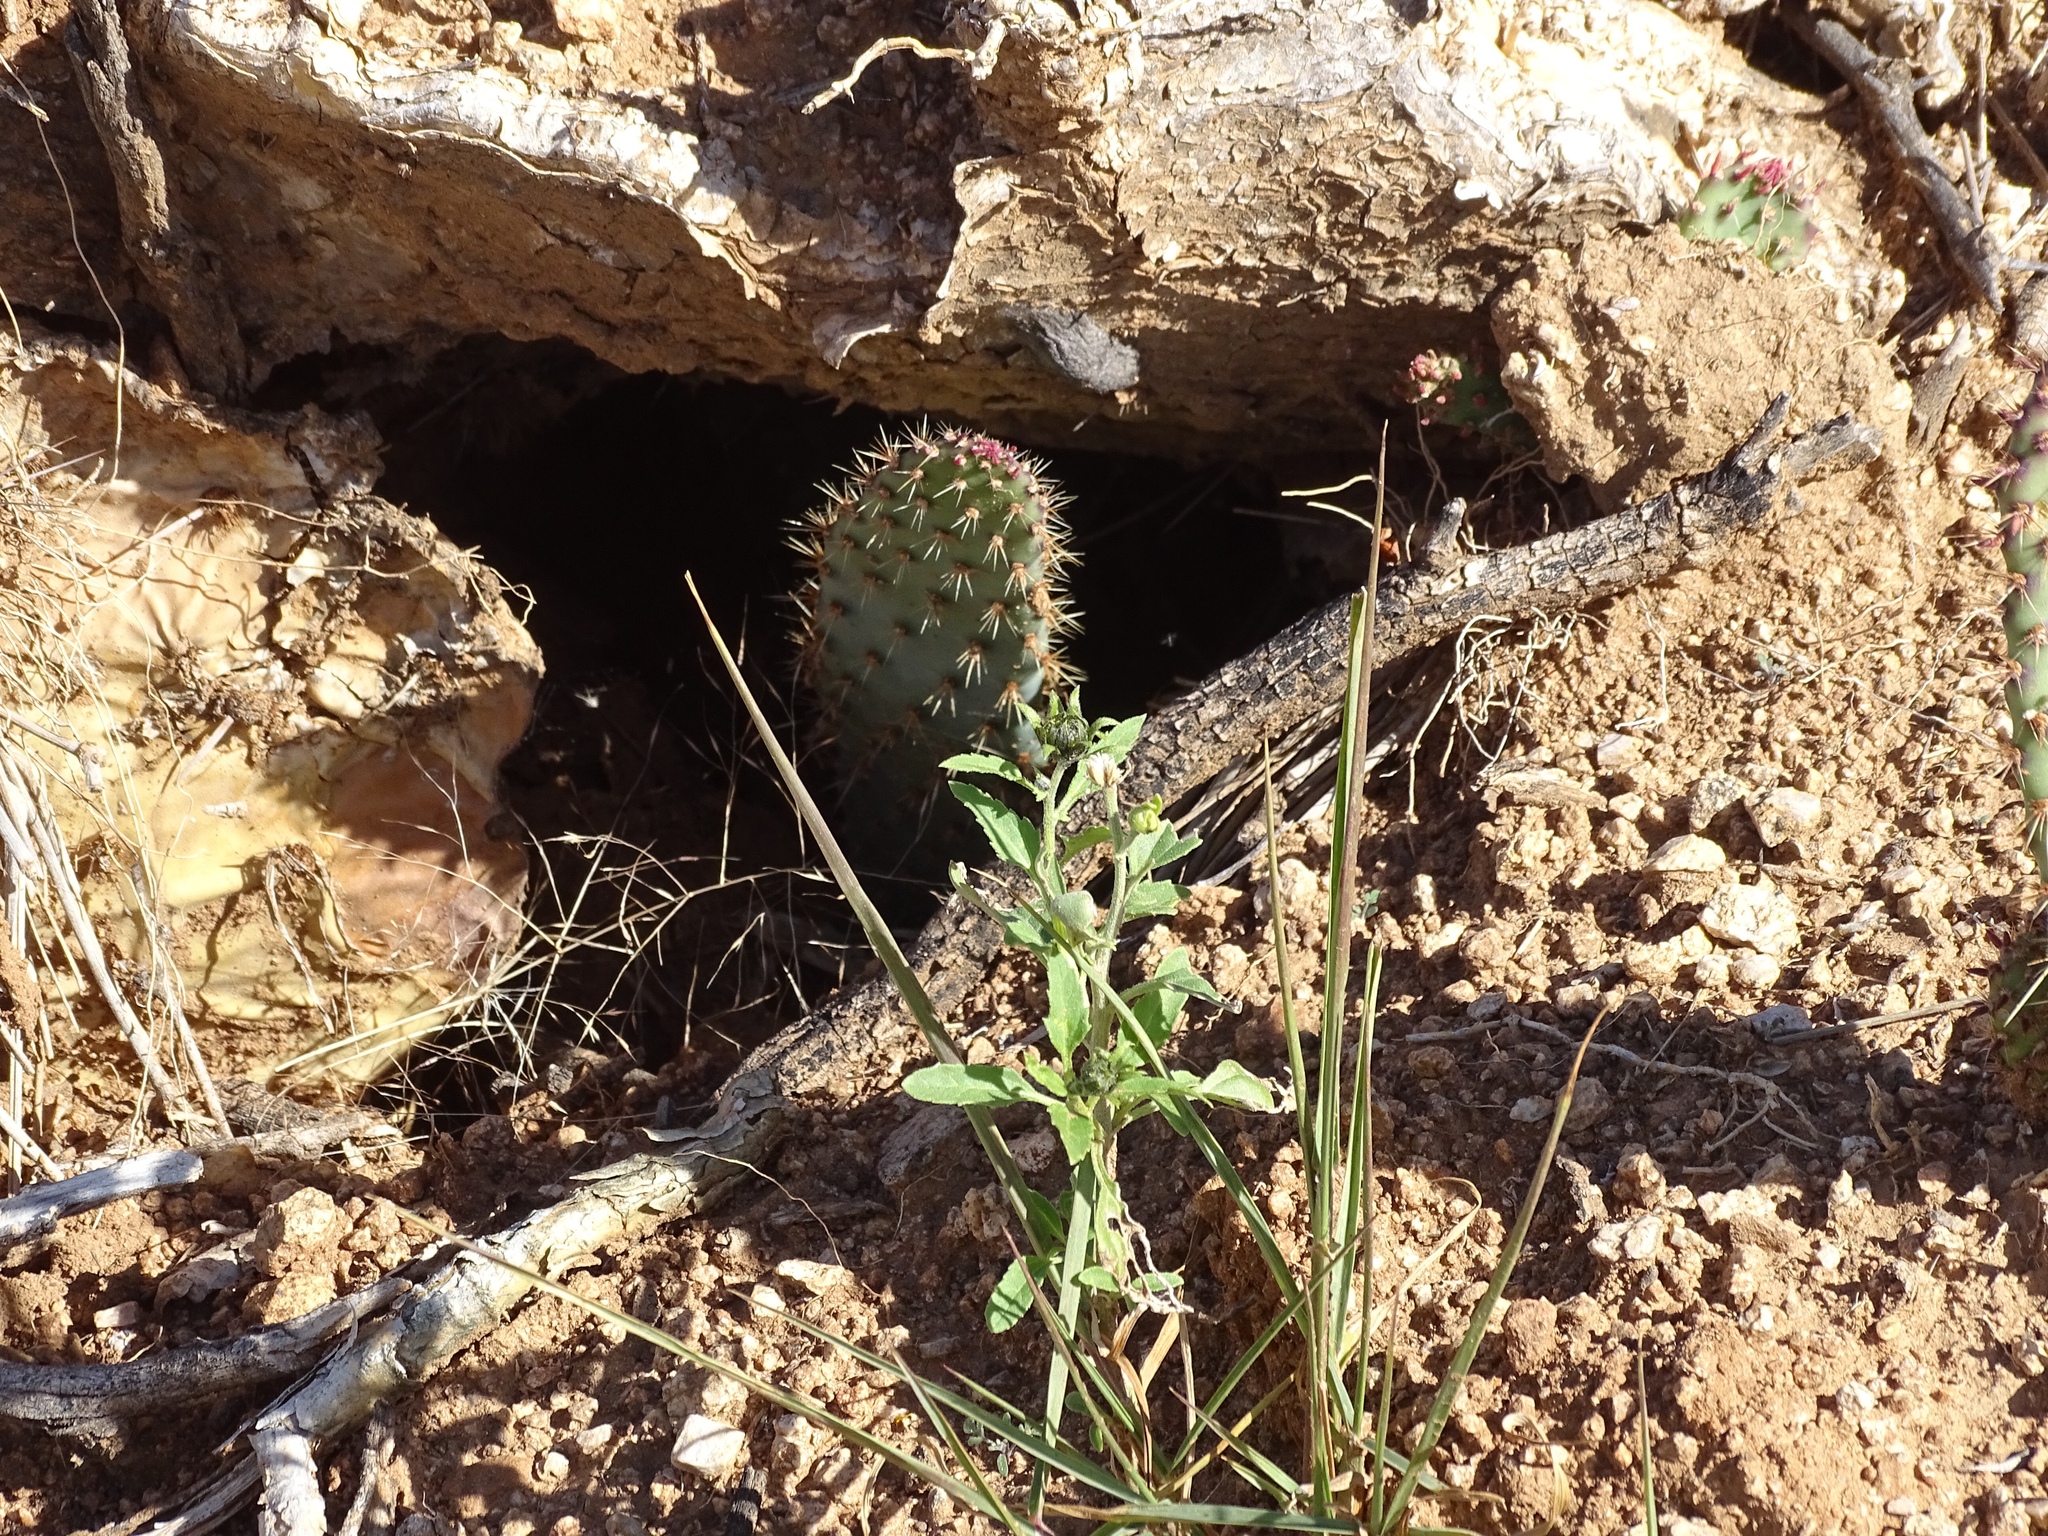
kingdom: Plantae
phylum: Tracheophyta
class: Magnoliopsida
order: Caryophyllales
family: Cactaceae
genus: Opuntia
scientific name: Opuntia engelmannii
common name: Cactus-apple
